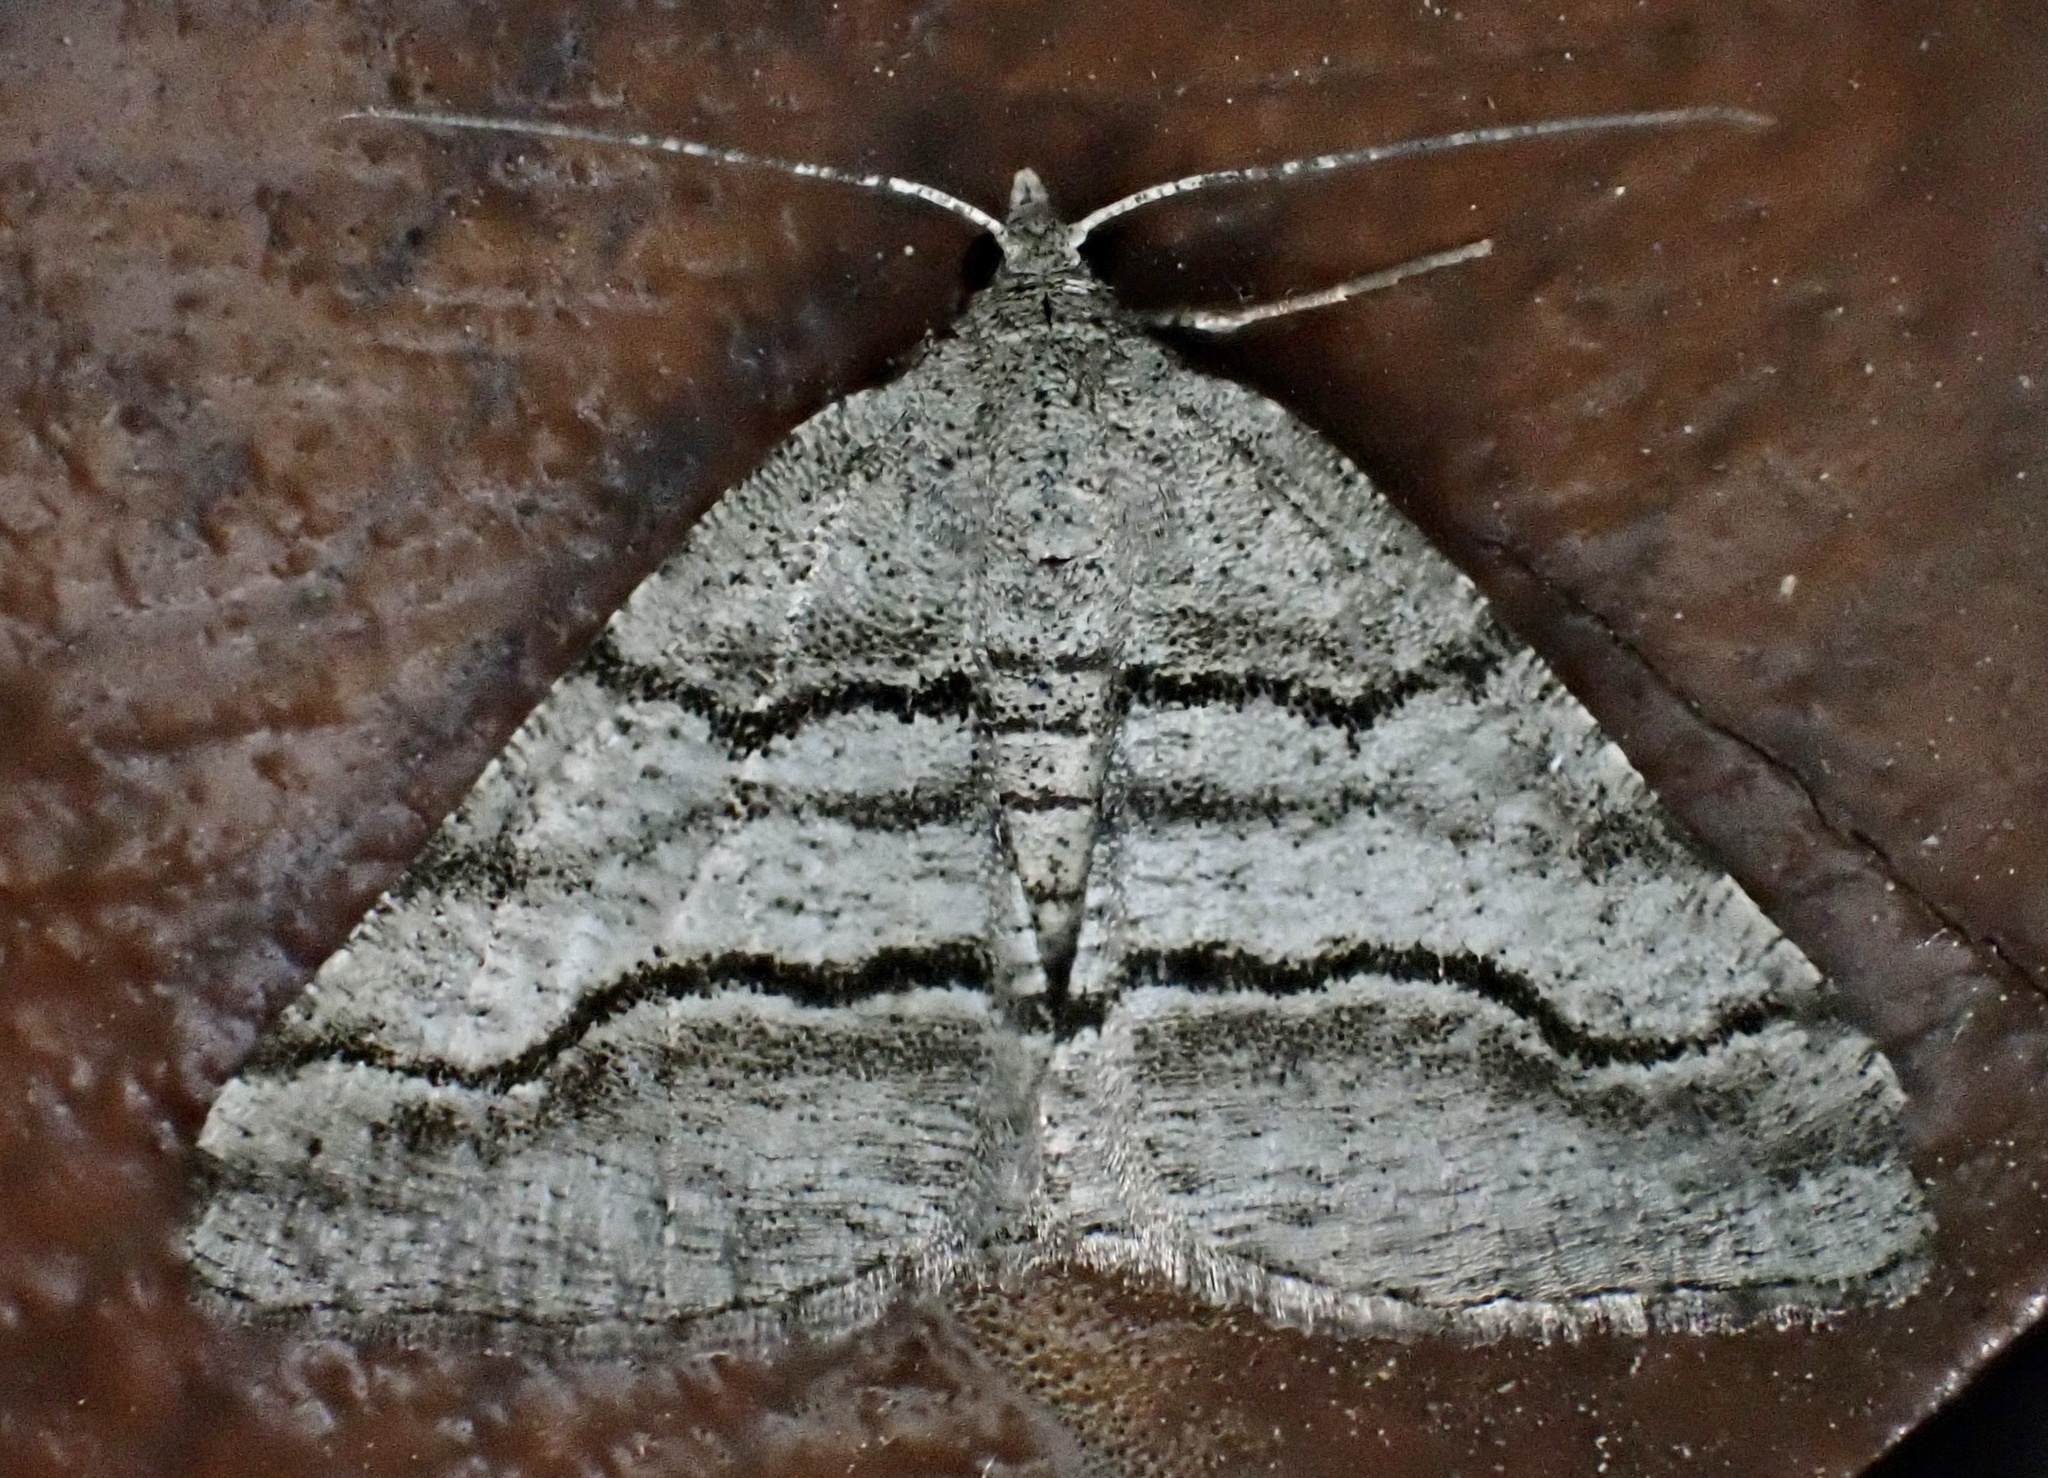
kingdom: Animalia
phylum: Arthropoda
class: Insecta
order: Lepidoptera
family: Geometridae
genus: Digrammia
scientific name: Digrammia continuata
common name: Curve-lined angle
